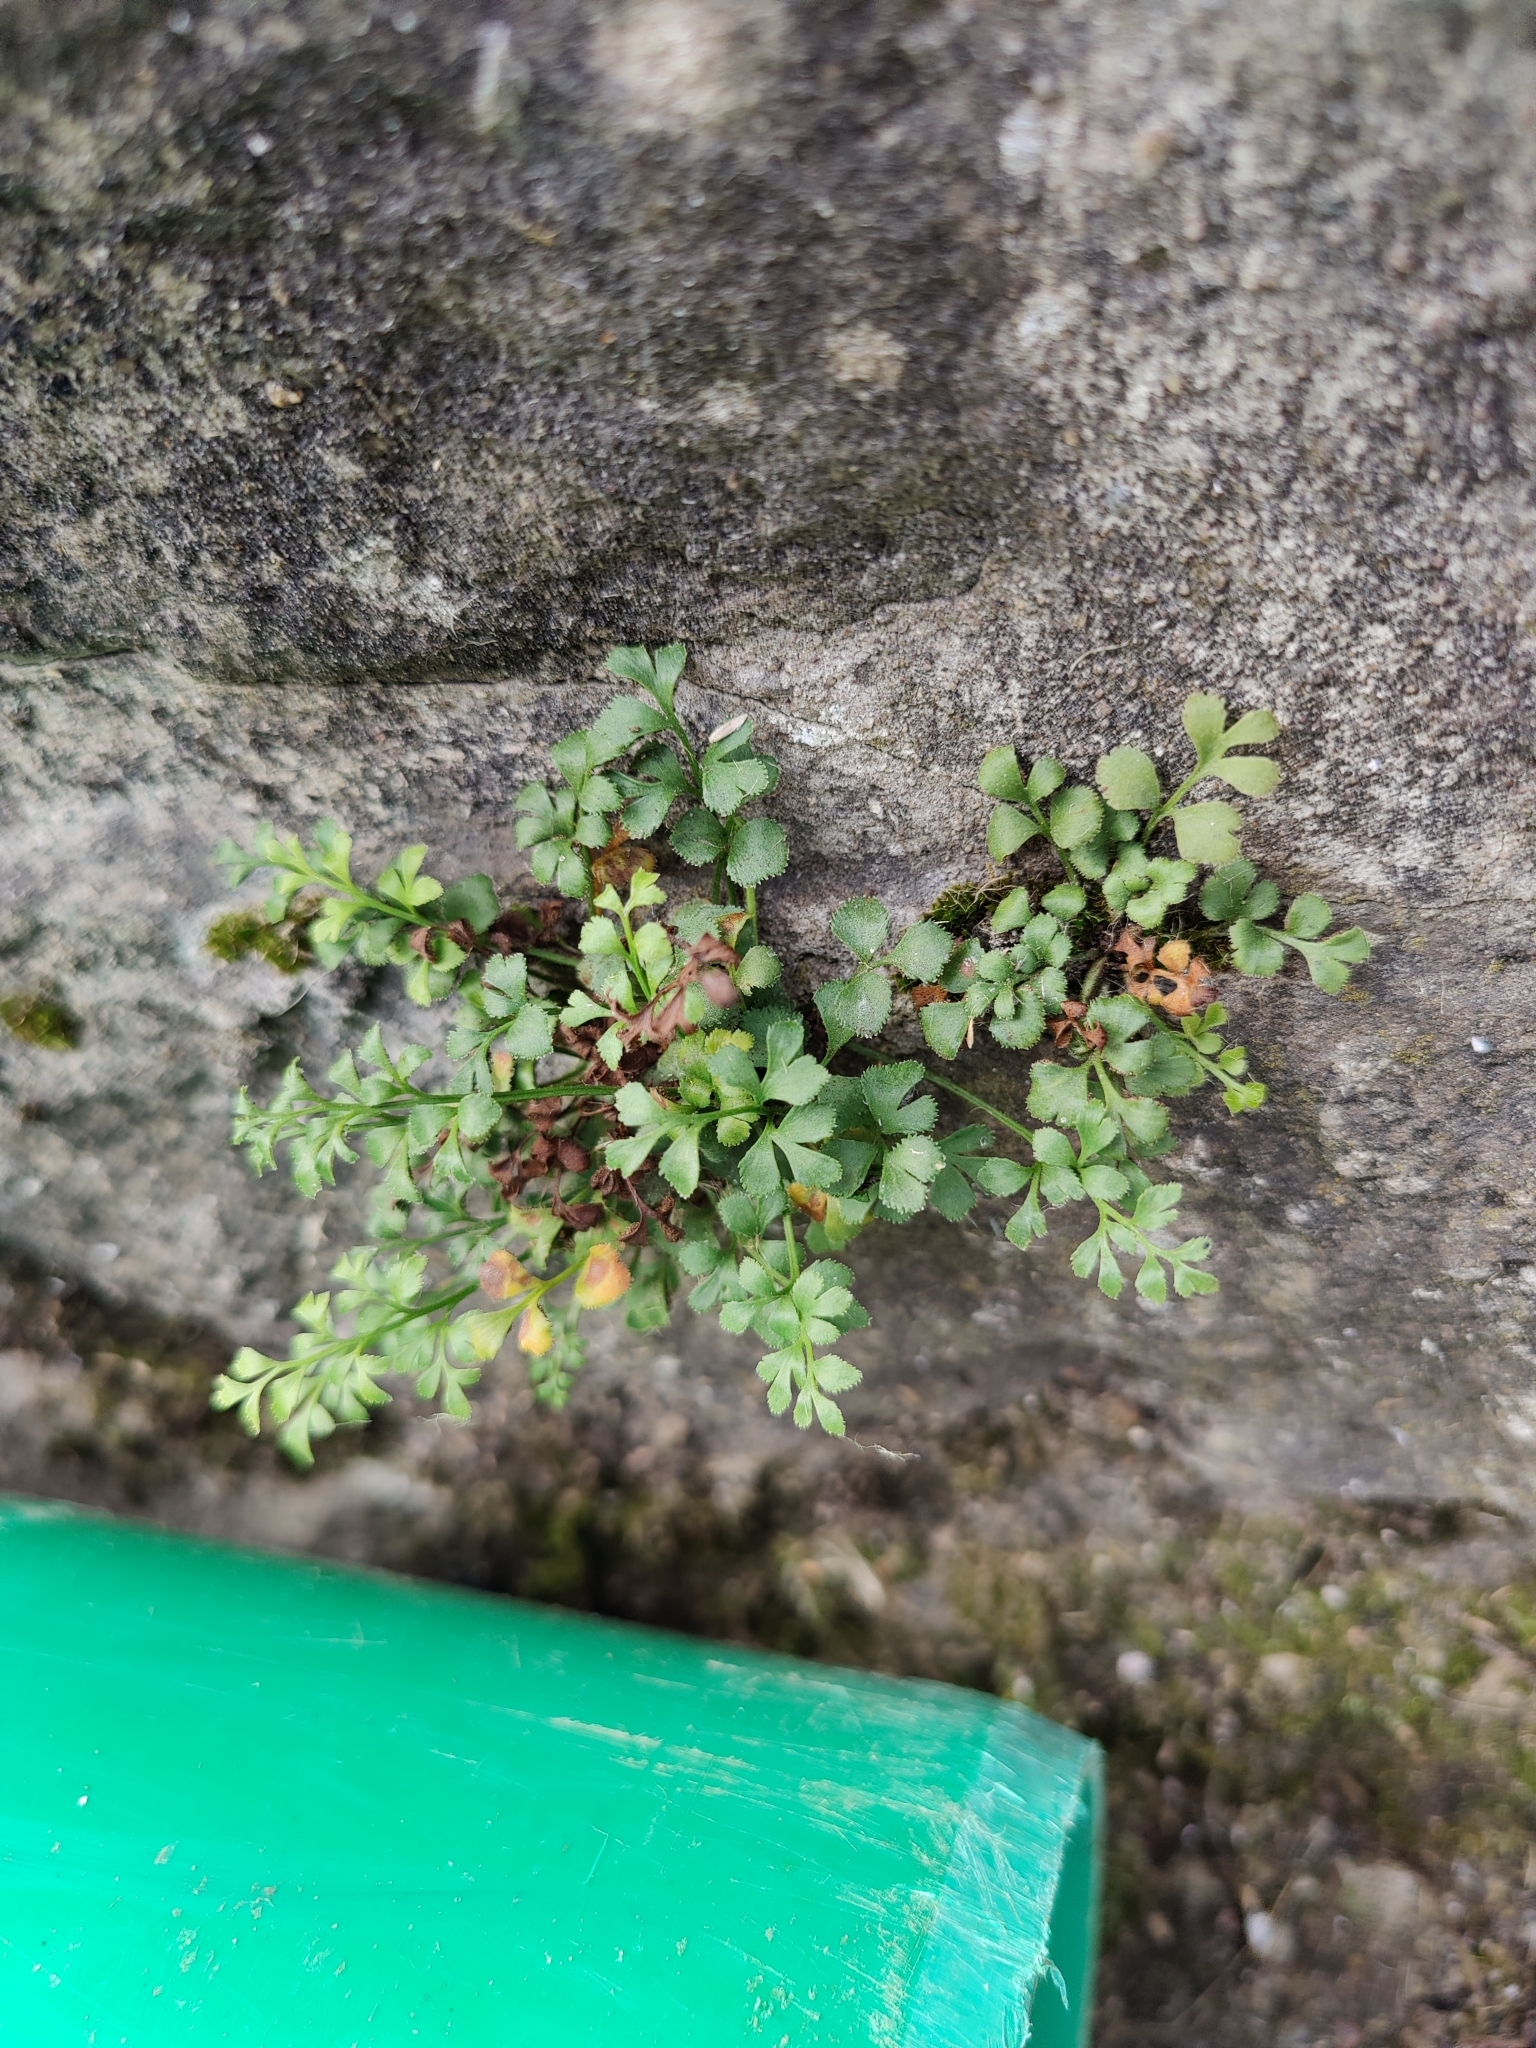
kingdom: Plantae
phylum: Tracheophyta
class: Polypodiopsida
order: Polypodiales
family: Aspleniaceae
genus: Asplenium
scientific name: Asplenium ruta-muraria
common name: Wall-rue
